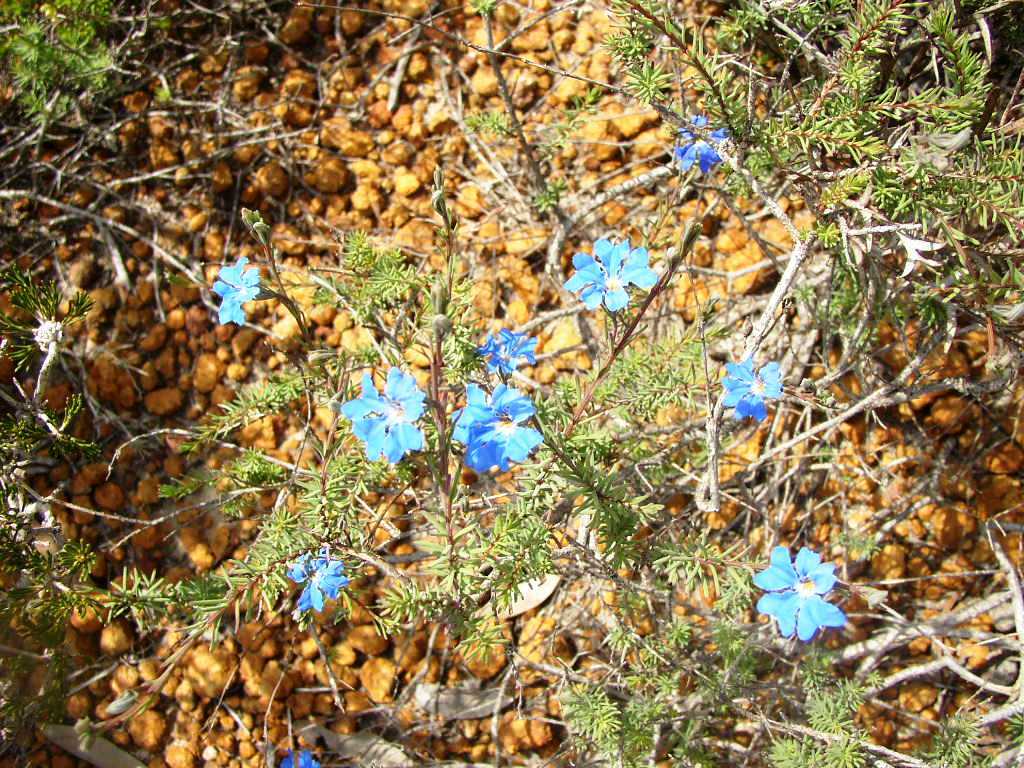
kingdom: Plantae
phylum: Tracheophyta
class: Magnoliopsida
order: Asterales
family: Goodeniaceae
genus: Lechenaultia
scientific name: Lechenaultia biloba
